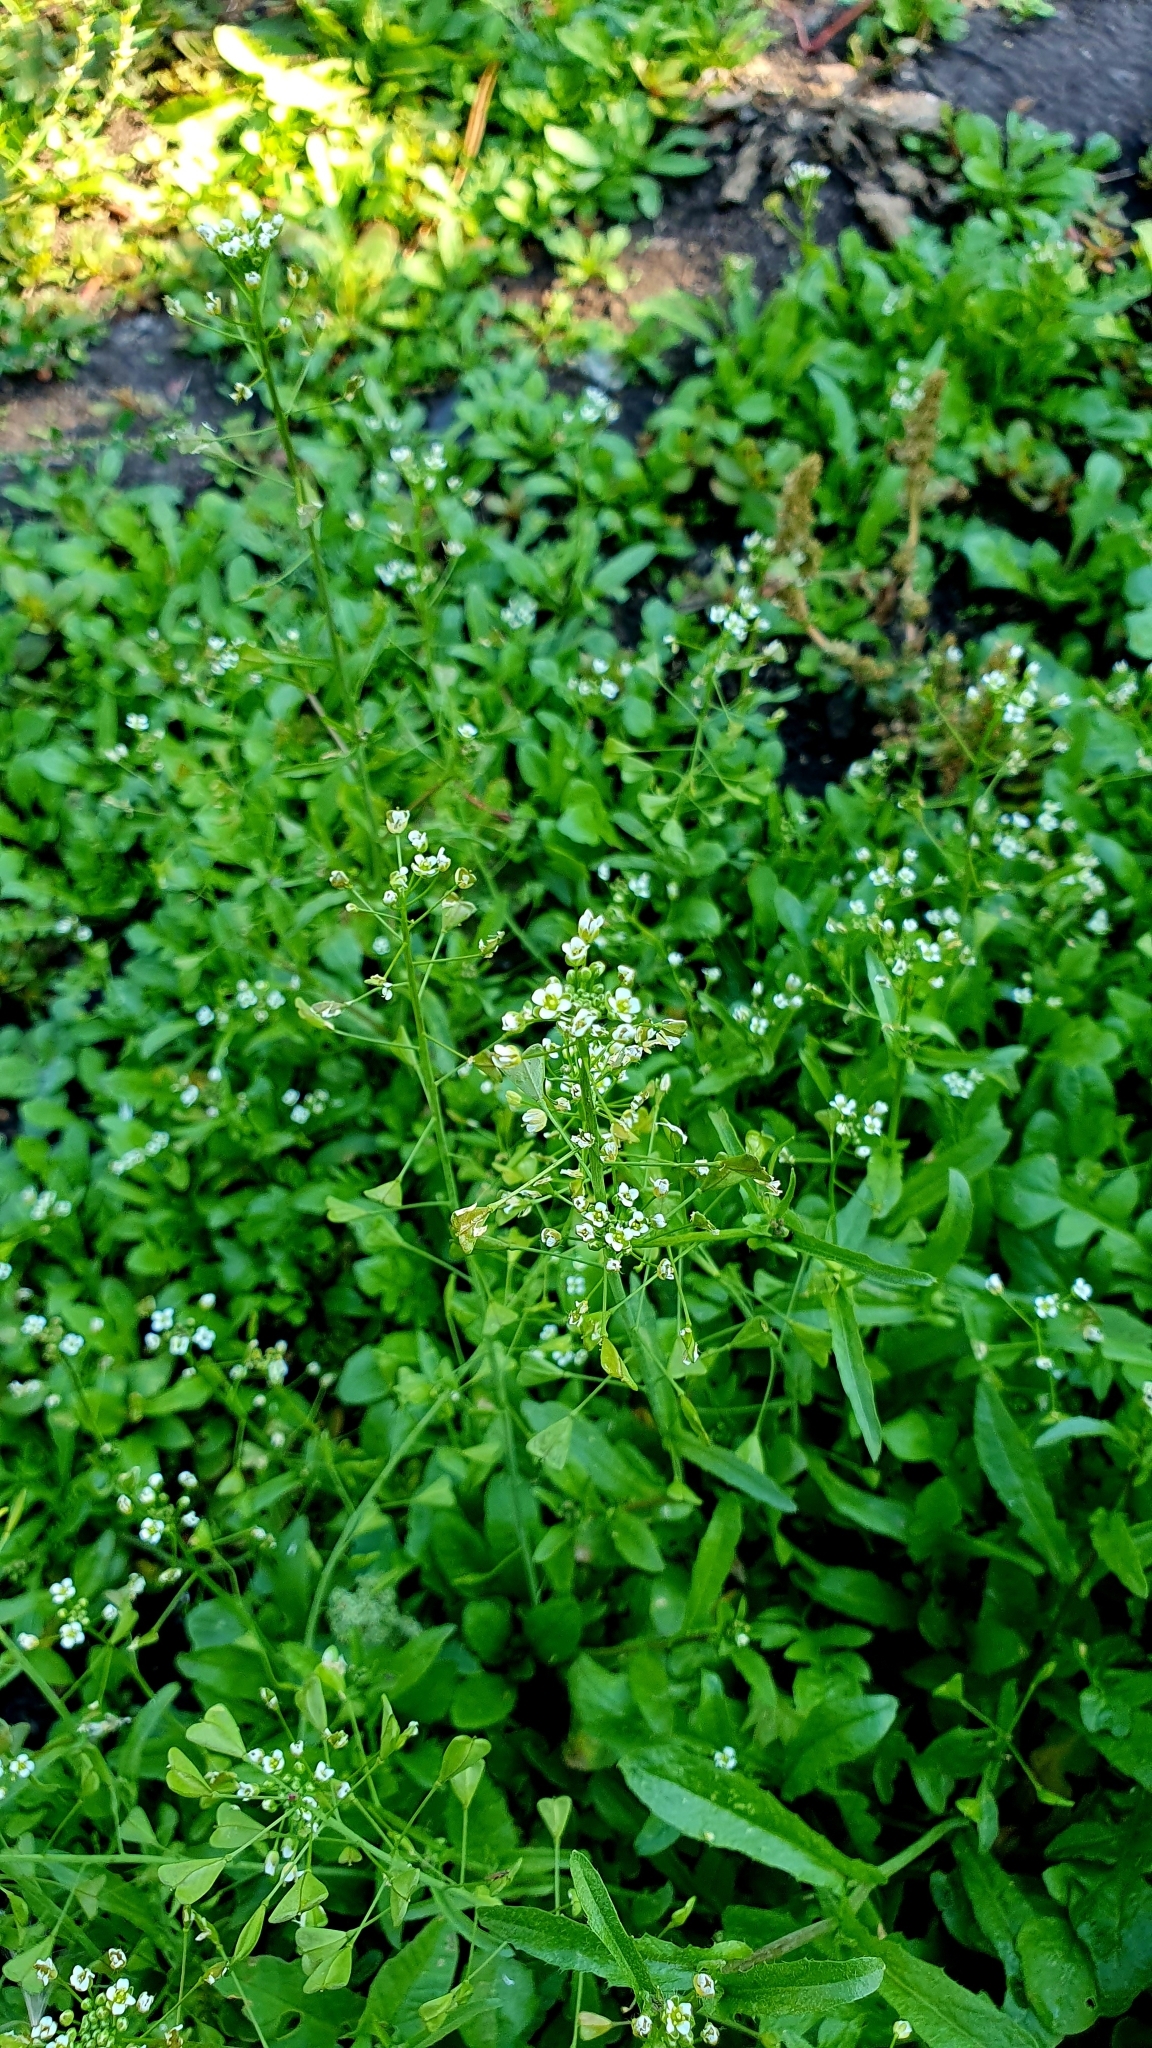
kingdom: Plantae
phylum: Tracheophyta
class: Magnoliopsida
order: Brassicales
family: Brassicaceae
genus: Capsella
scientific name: Capsella bursa-pastoris
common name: Shepherd's purse
